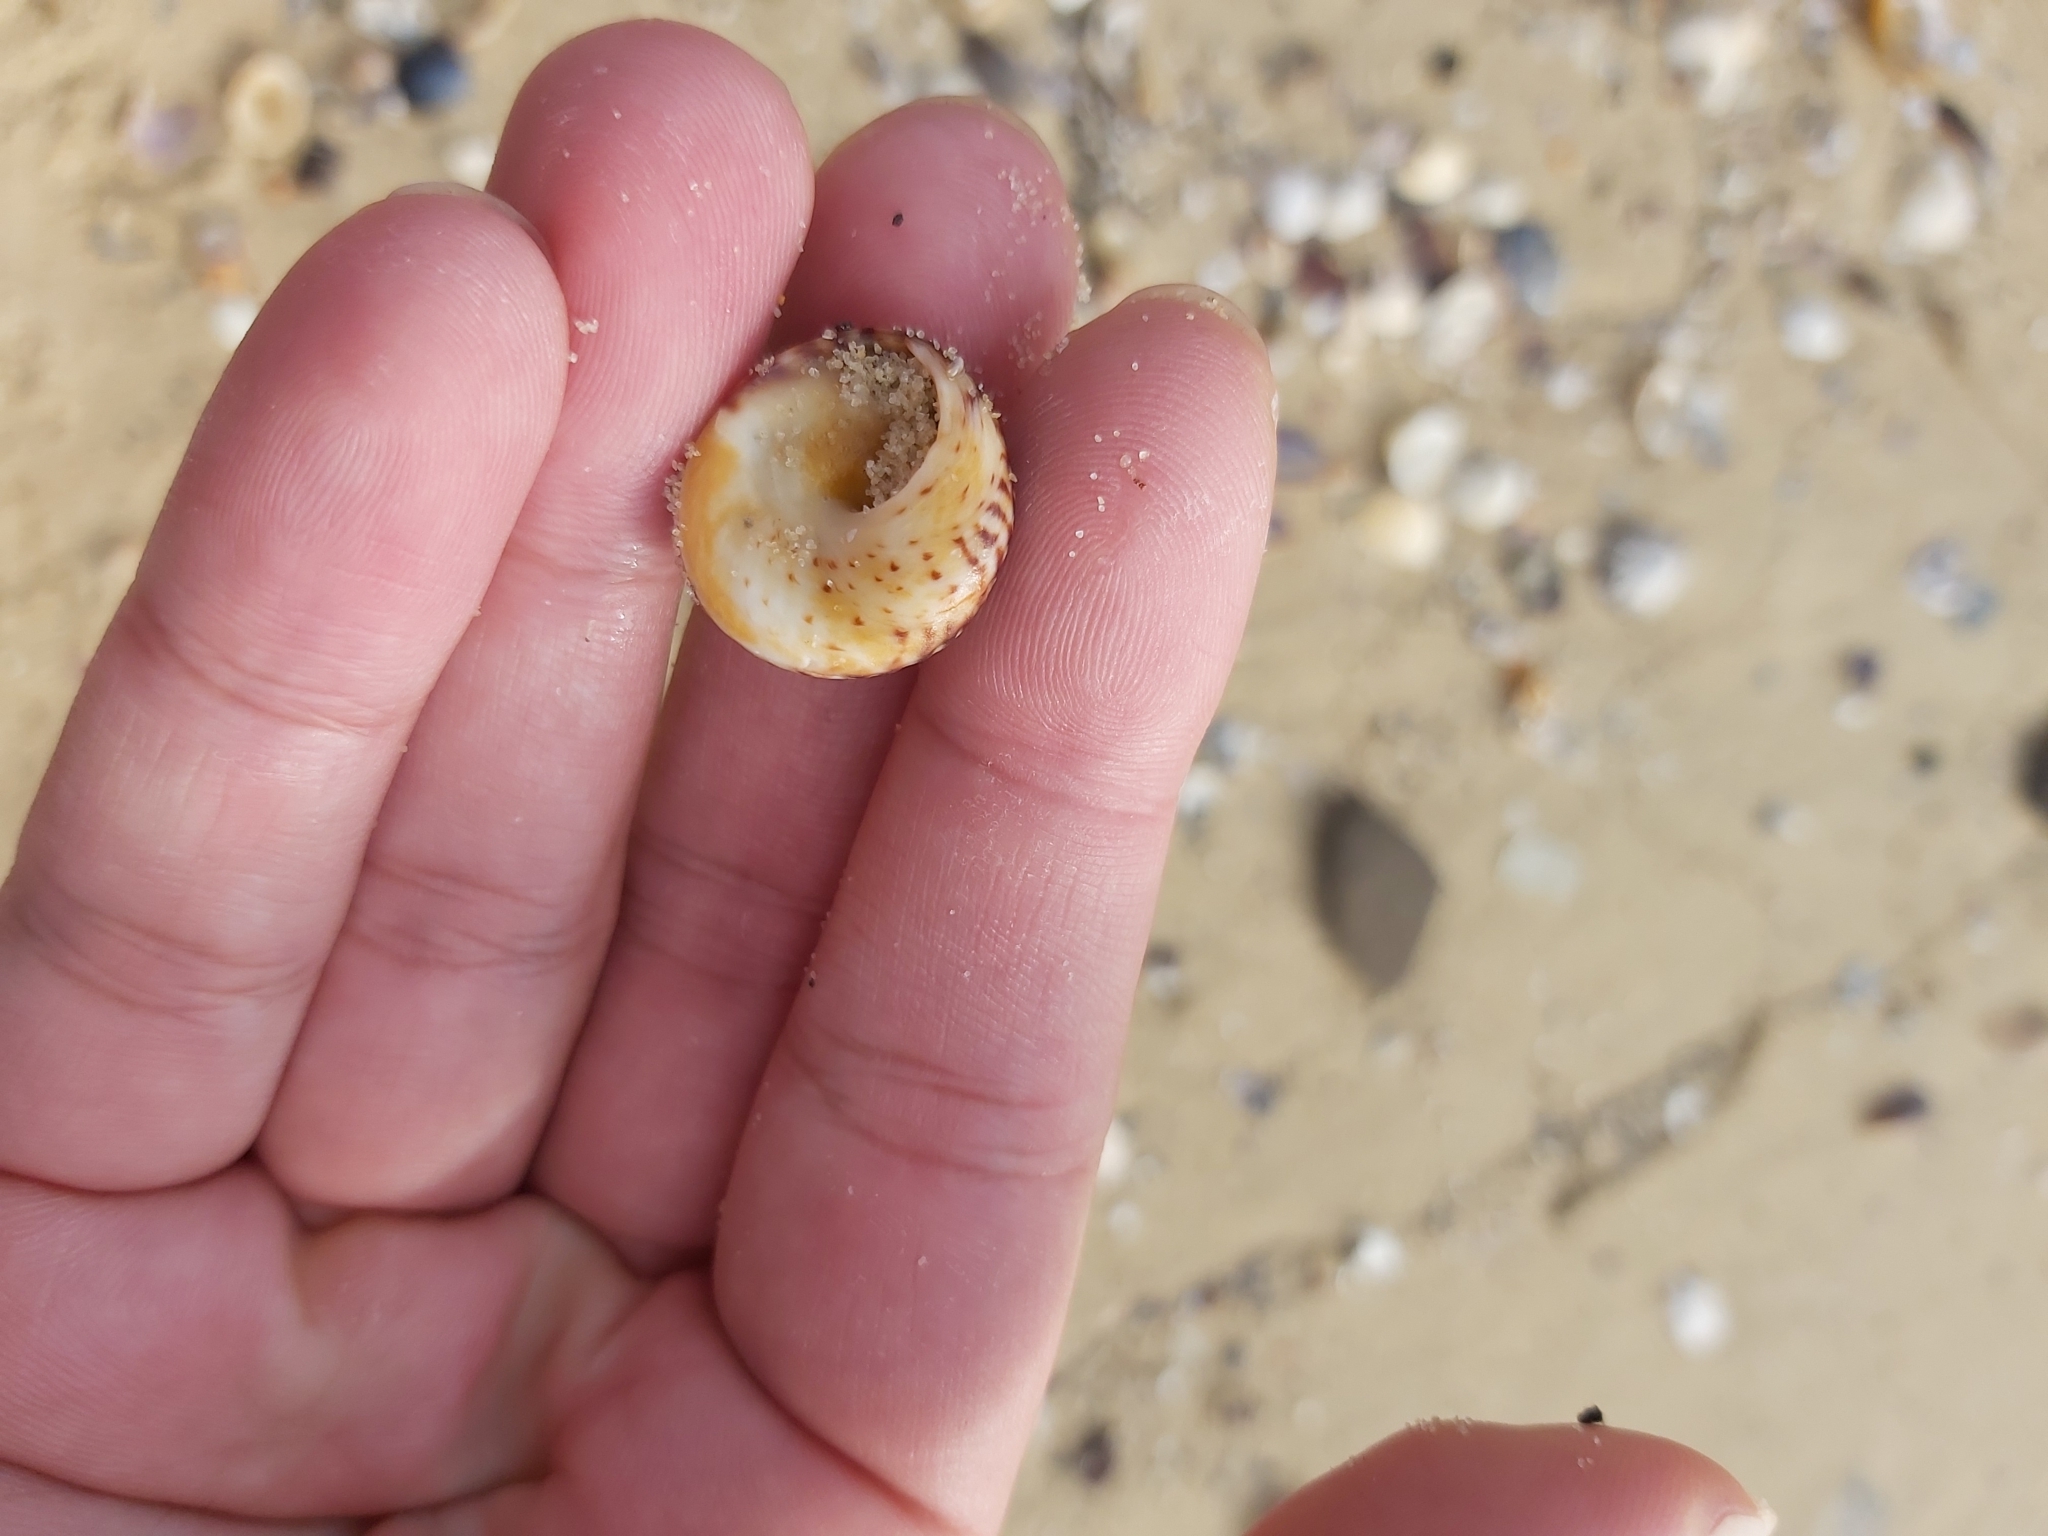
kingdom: Animalia
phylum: Mollusca
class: Gastropoda
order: Littorinimorpha
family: Littorinidae
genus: Bembicium
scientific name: Bembicium nanum
